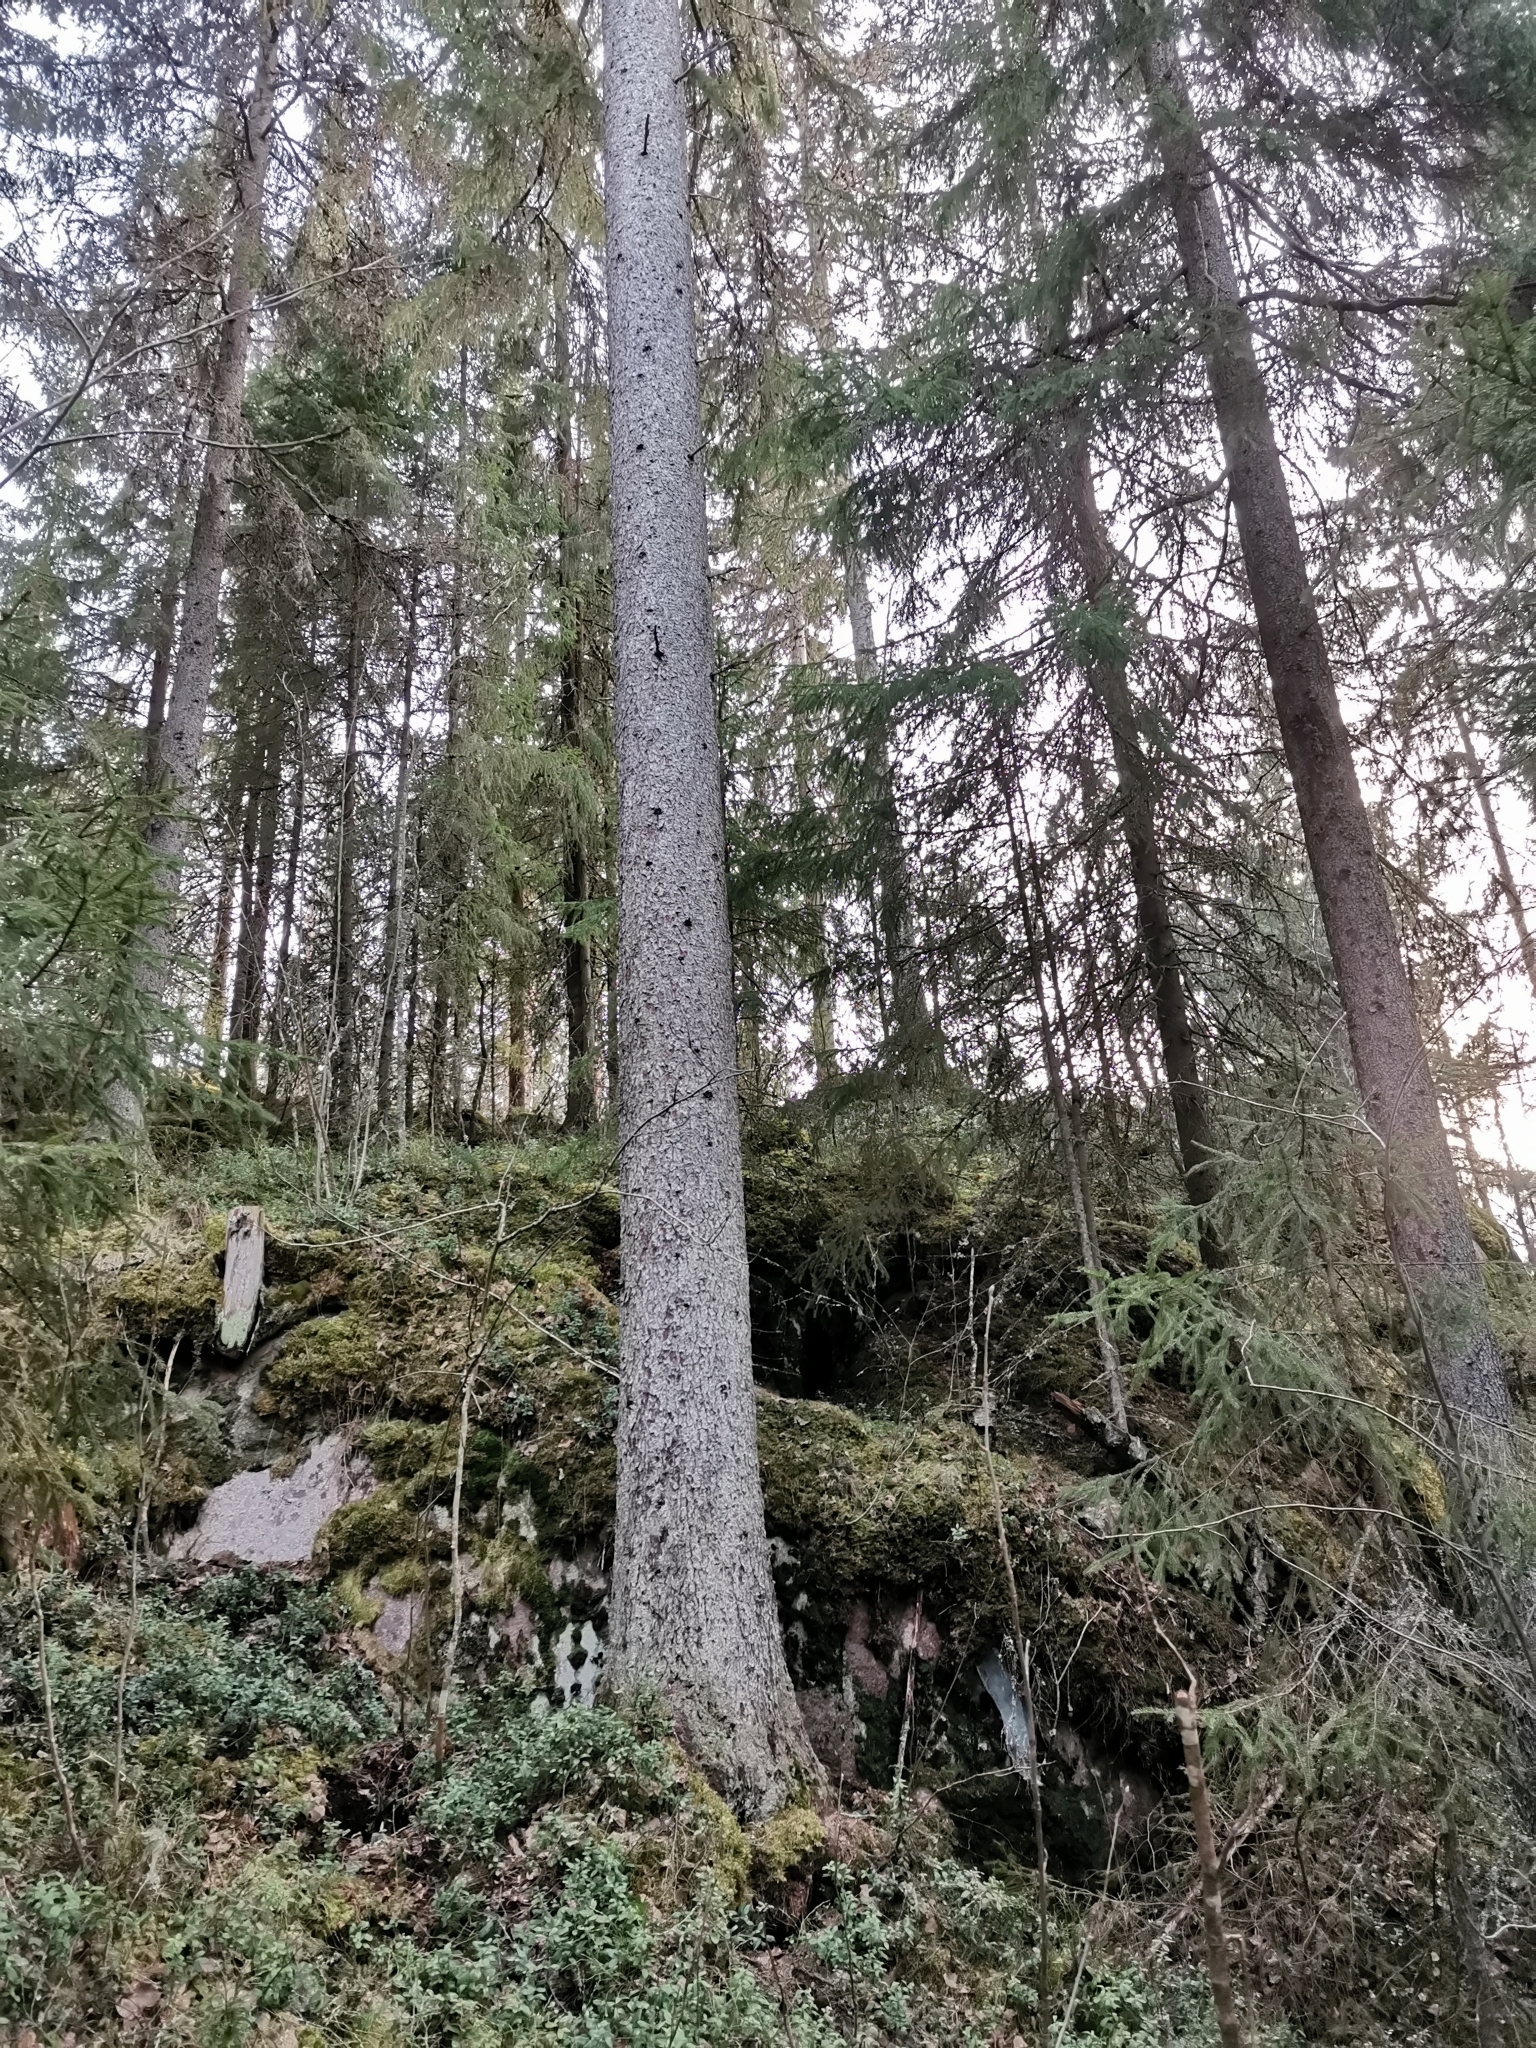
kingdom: Animalia
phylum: Chordata
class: Mammalia
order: Rodentia
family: Sciuridae
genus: Pteromys
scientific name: Pteromys volans
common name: Siberian flying squirrel
